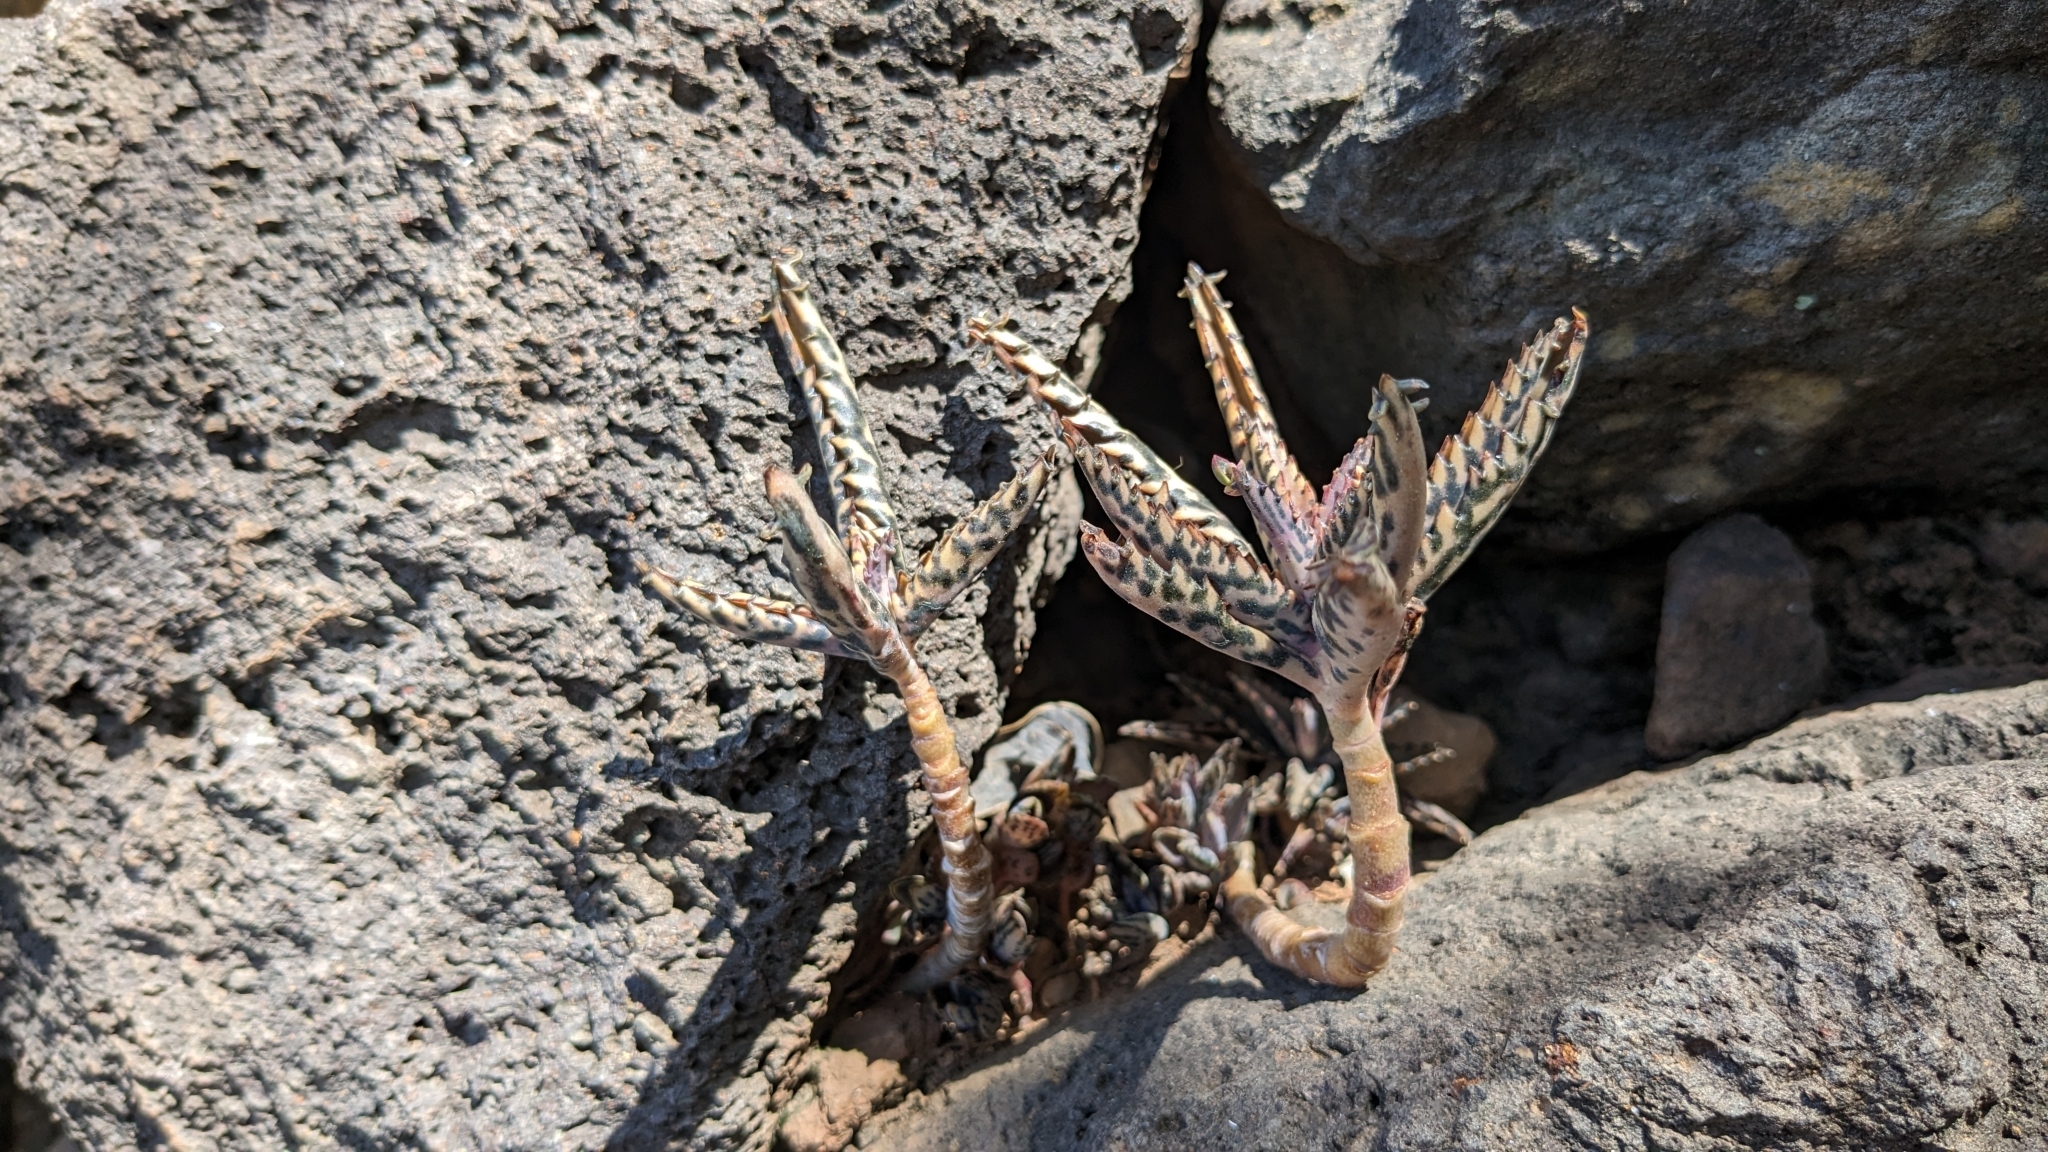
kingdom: Plantae
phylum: Tracheophyta
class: Magnoliopsida
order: Saxifragales
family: Crassulaceae
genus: Kalanchoe
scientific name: Kalanchoe houghtonii
